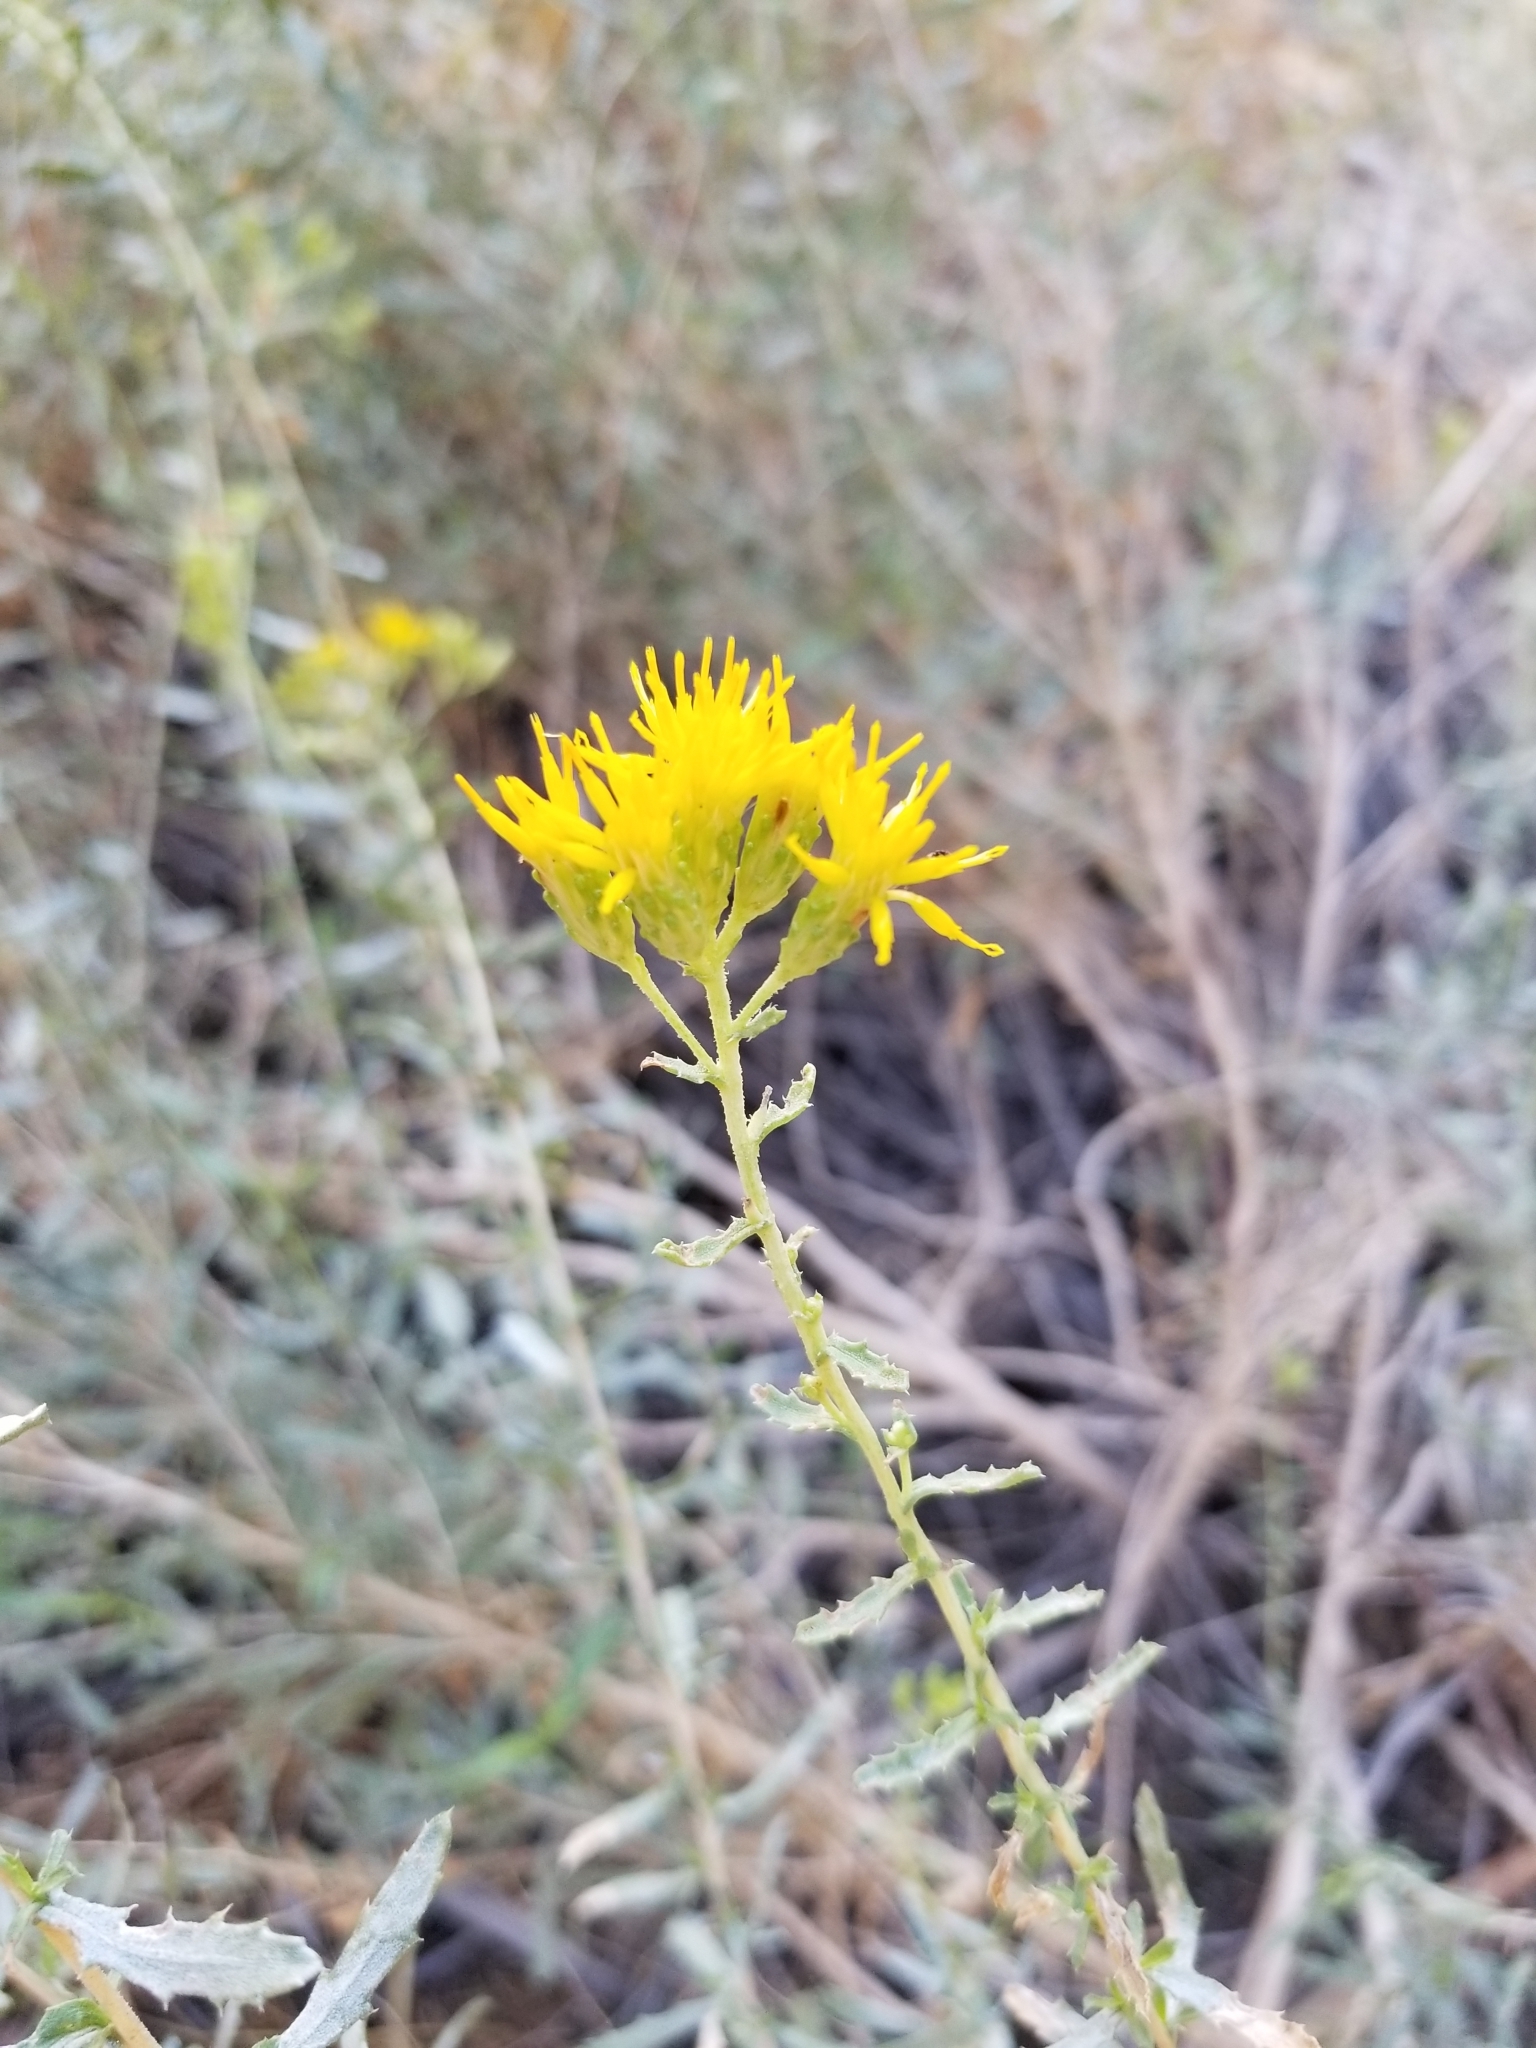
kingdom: Plantae
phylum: Tracheophyta
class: Magnoliopsida
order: Asterales
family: Asteraceae
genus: Isocoma
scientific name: Isocoma acradenia
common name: Alkali jimmyweed
